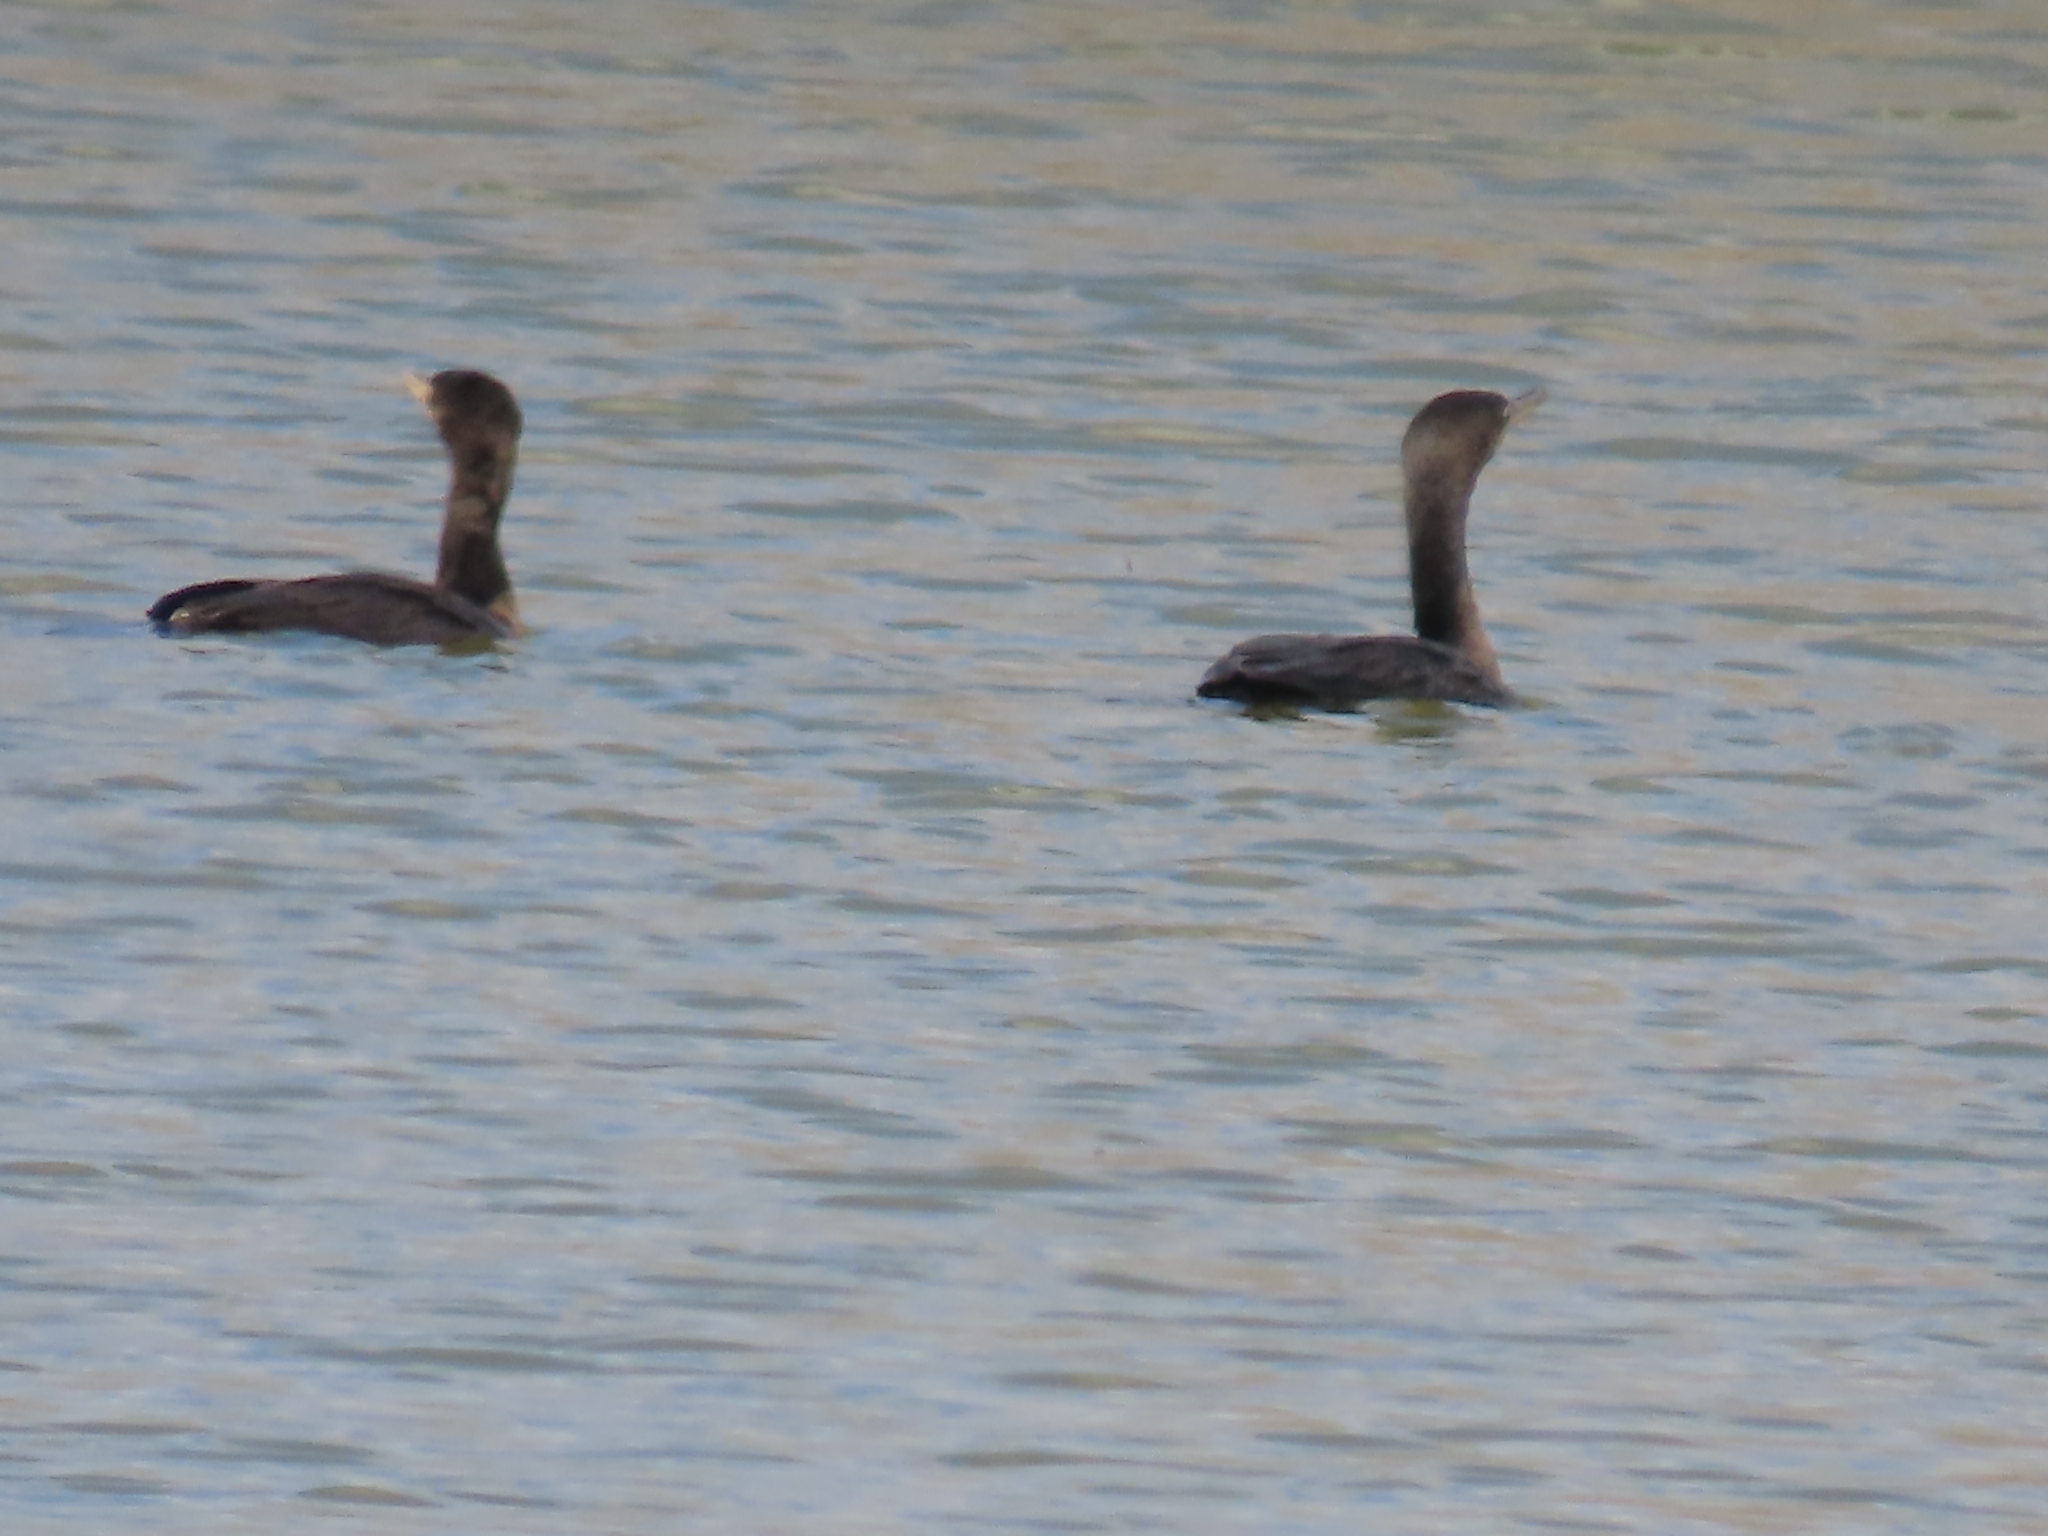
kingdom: Animalia
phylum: Chordata
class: Aves
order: Suliformes
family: Phalacrocoracidae
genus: Phalacrocorax
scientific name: Phalacrocorax brasilianus
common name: Neotropic cormorant
